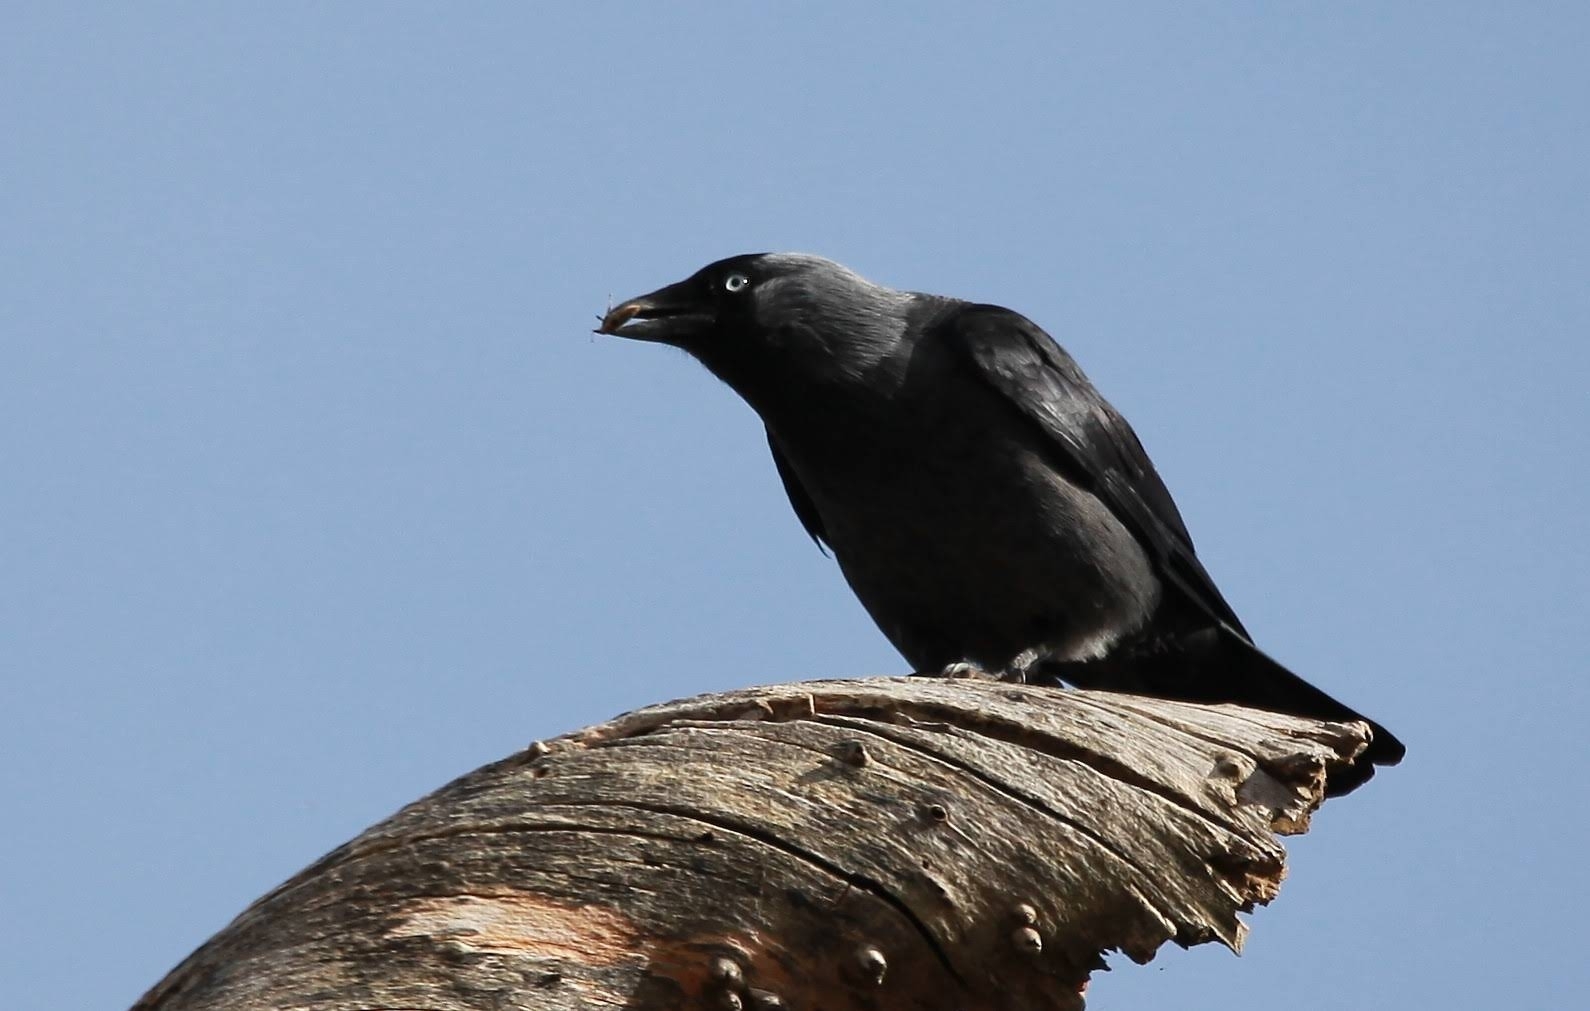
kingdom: Animalia
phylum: Chordata
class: Aves
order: Passeriformes
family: Corvidae
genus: Coloeus
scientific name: Coloeus monedula
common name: Western jackdaw
